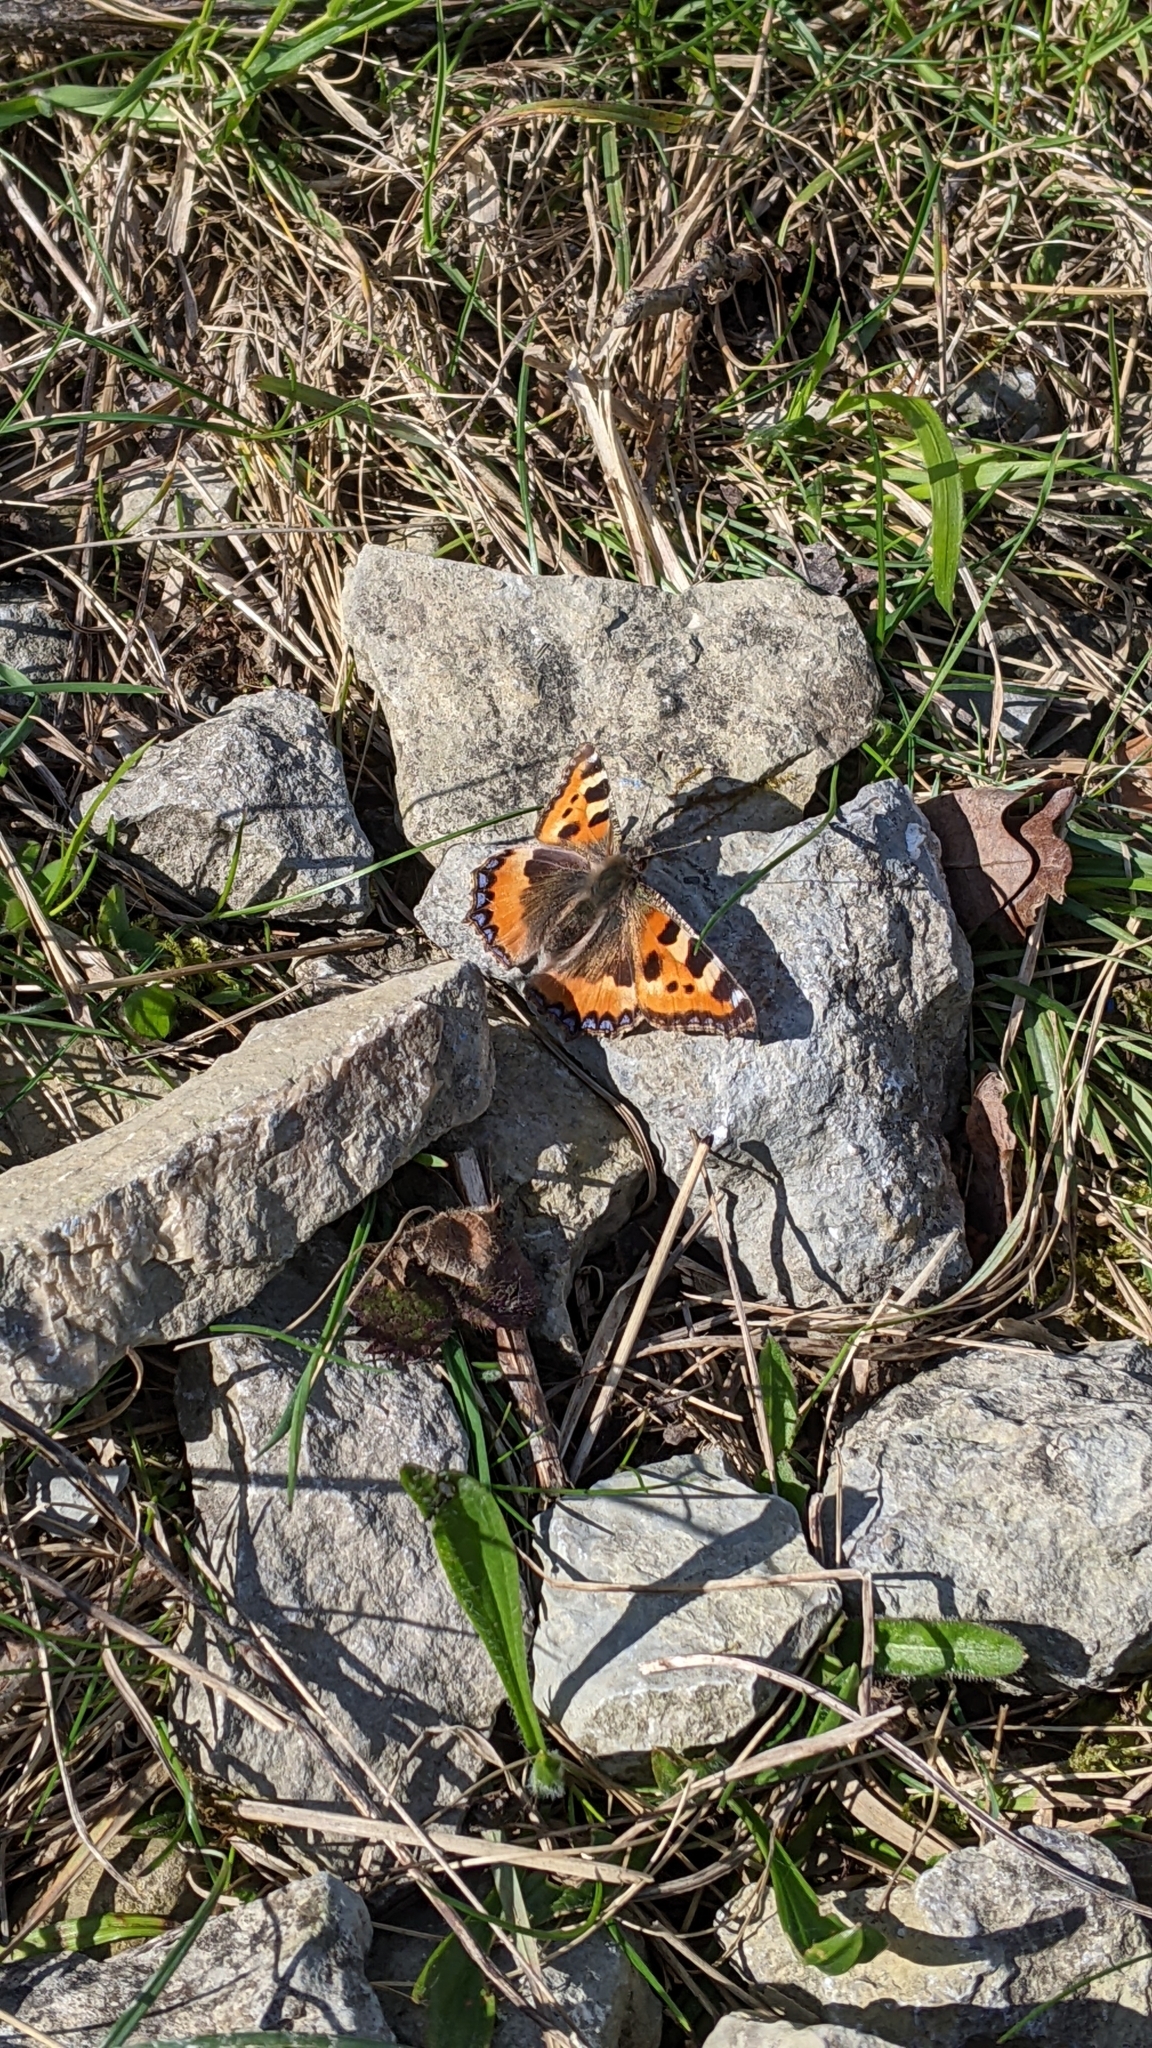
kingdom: Animalia
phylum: Arthropoda
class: Insecta
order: Lepidoptera
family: Nymphalidae
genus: Aglais
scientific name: Aglais urticae
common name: Small tortoiseshell
